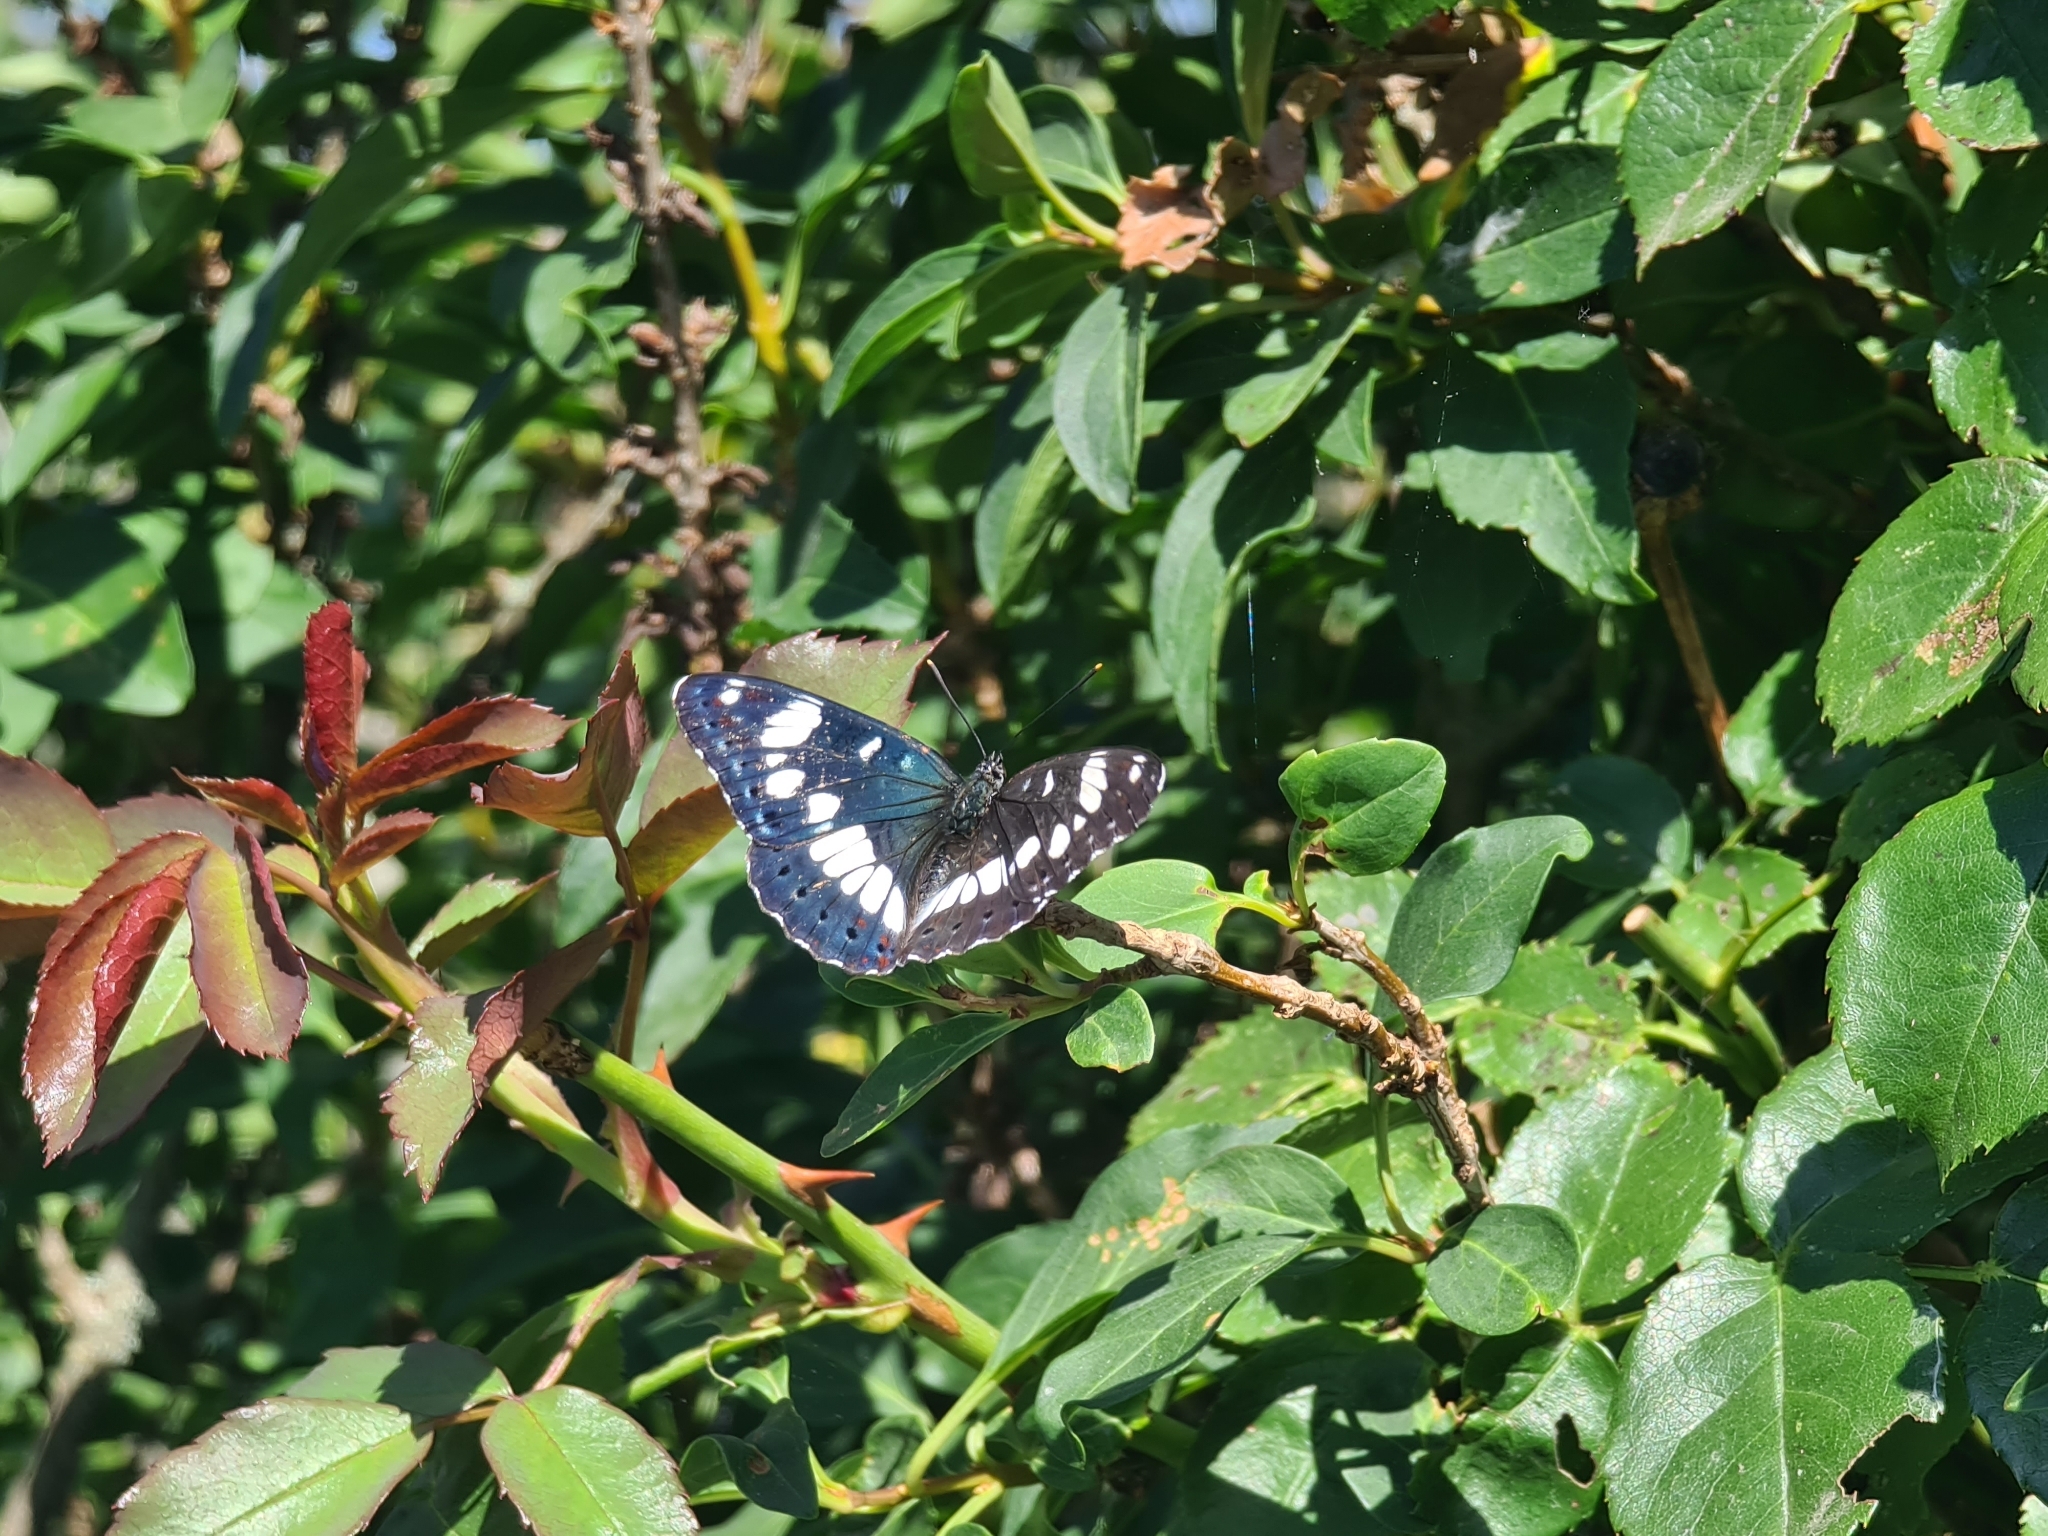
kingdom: Animalia
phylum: Arthropoda
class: Insecta
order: Lepidoptera
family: Nymphalidae
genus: Limenitis
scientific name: Limenitis reducta
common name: Southern white admiral
